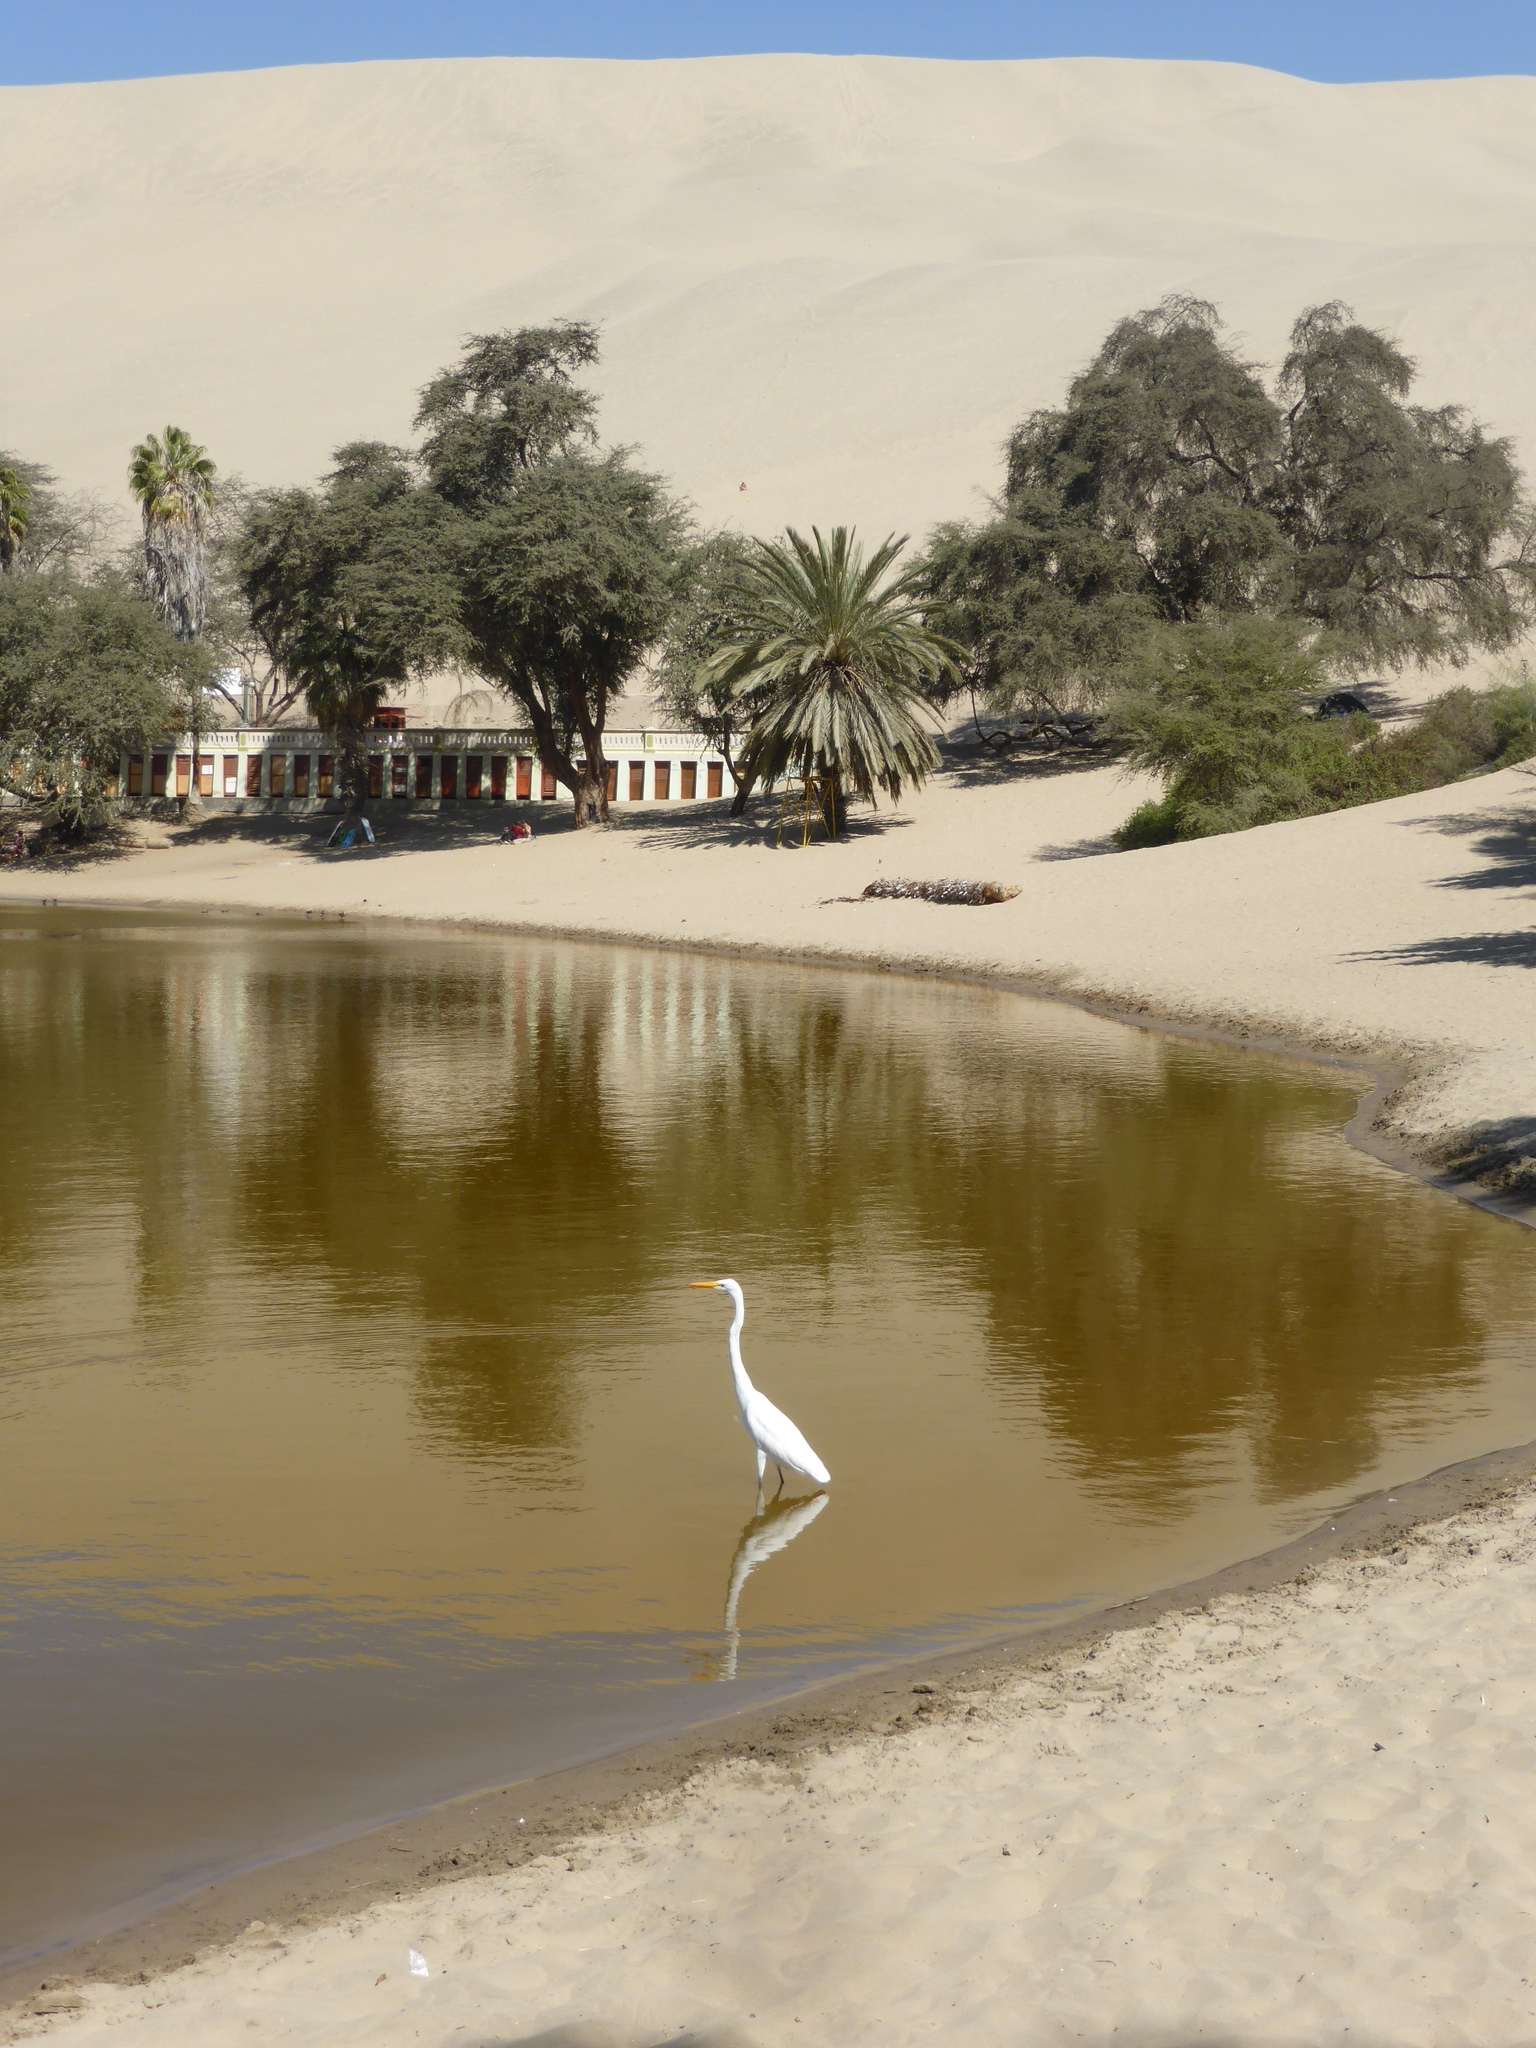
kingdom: Animalia
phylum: Chordata
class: Aves
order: Pelecaniformes
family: Ardeidae
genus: Ardea
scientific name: Ardea alba
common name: Great egret
